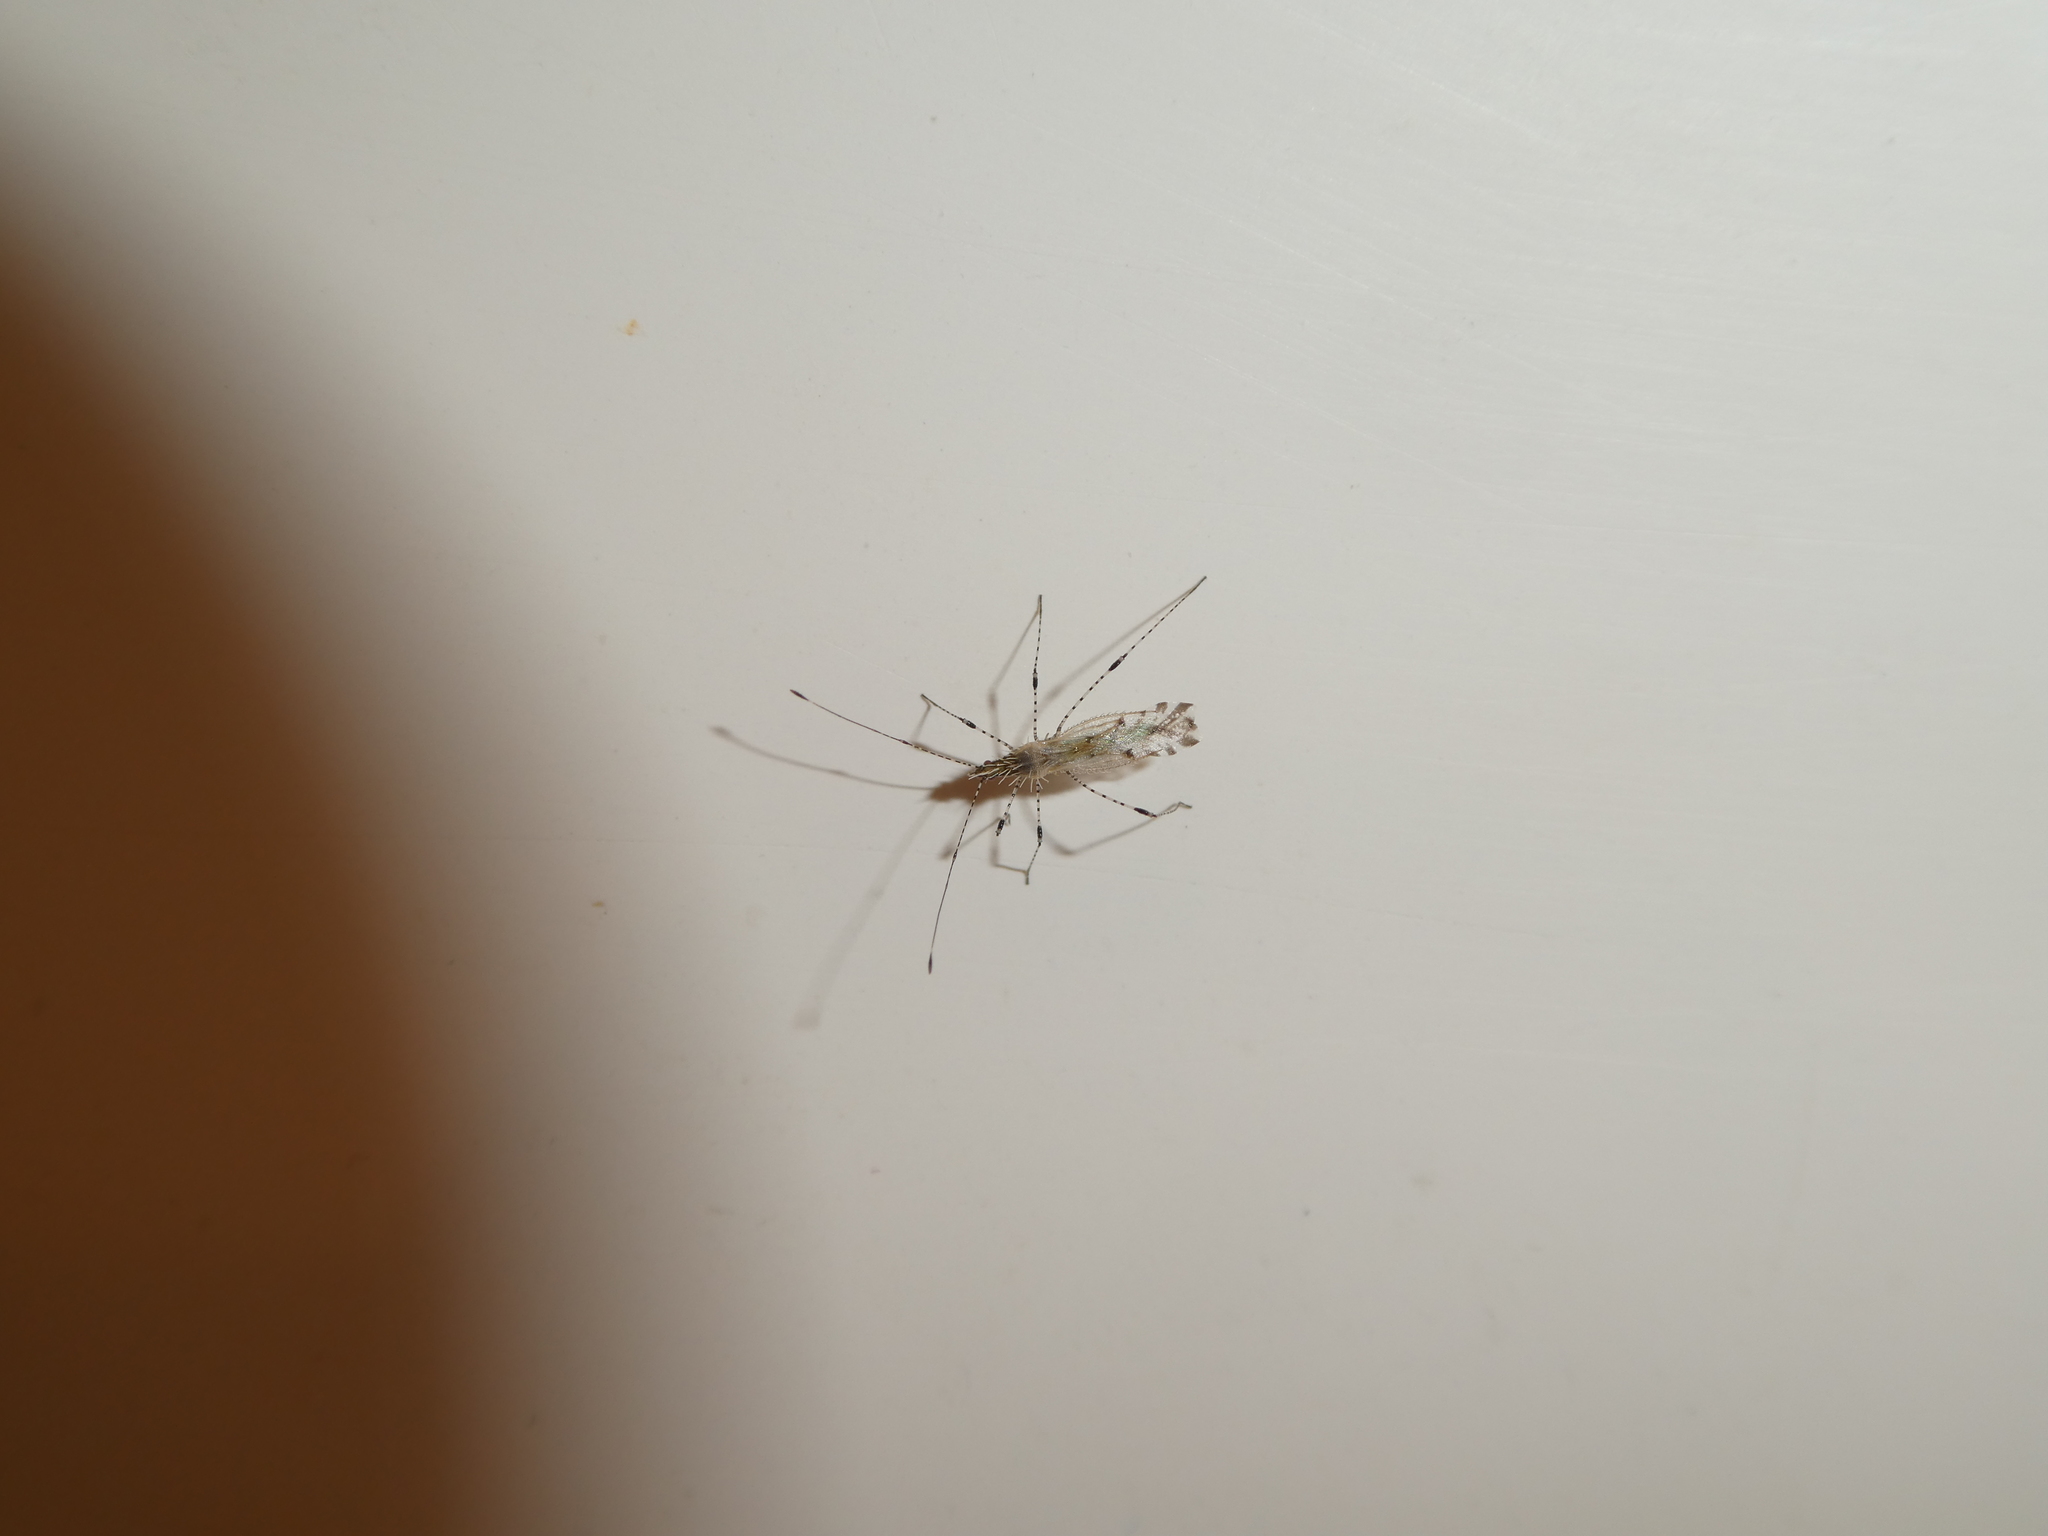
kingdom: Animalia
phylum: Arthropoda
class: Insecta
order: Hemiptera
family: Berytidae
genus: Hoplinus
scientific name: Hoplinus echinatus
